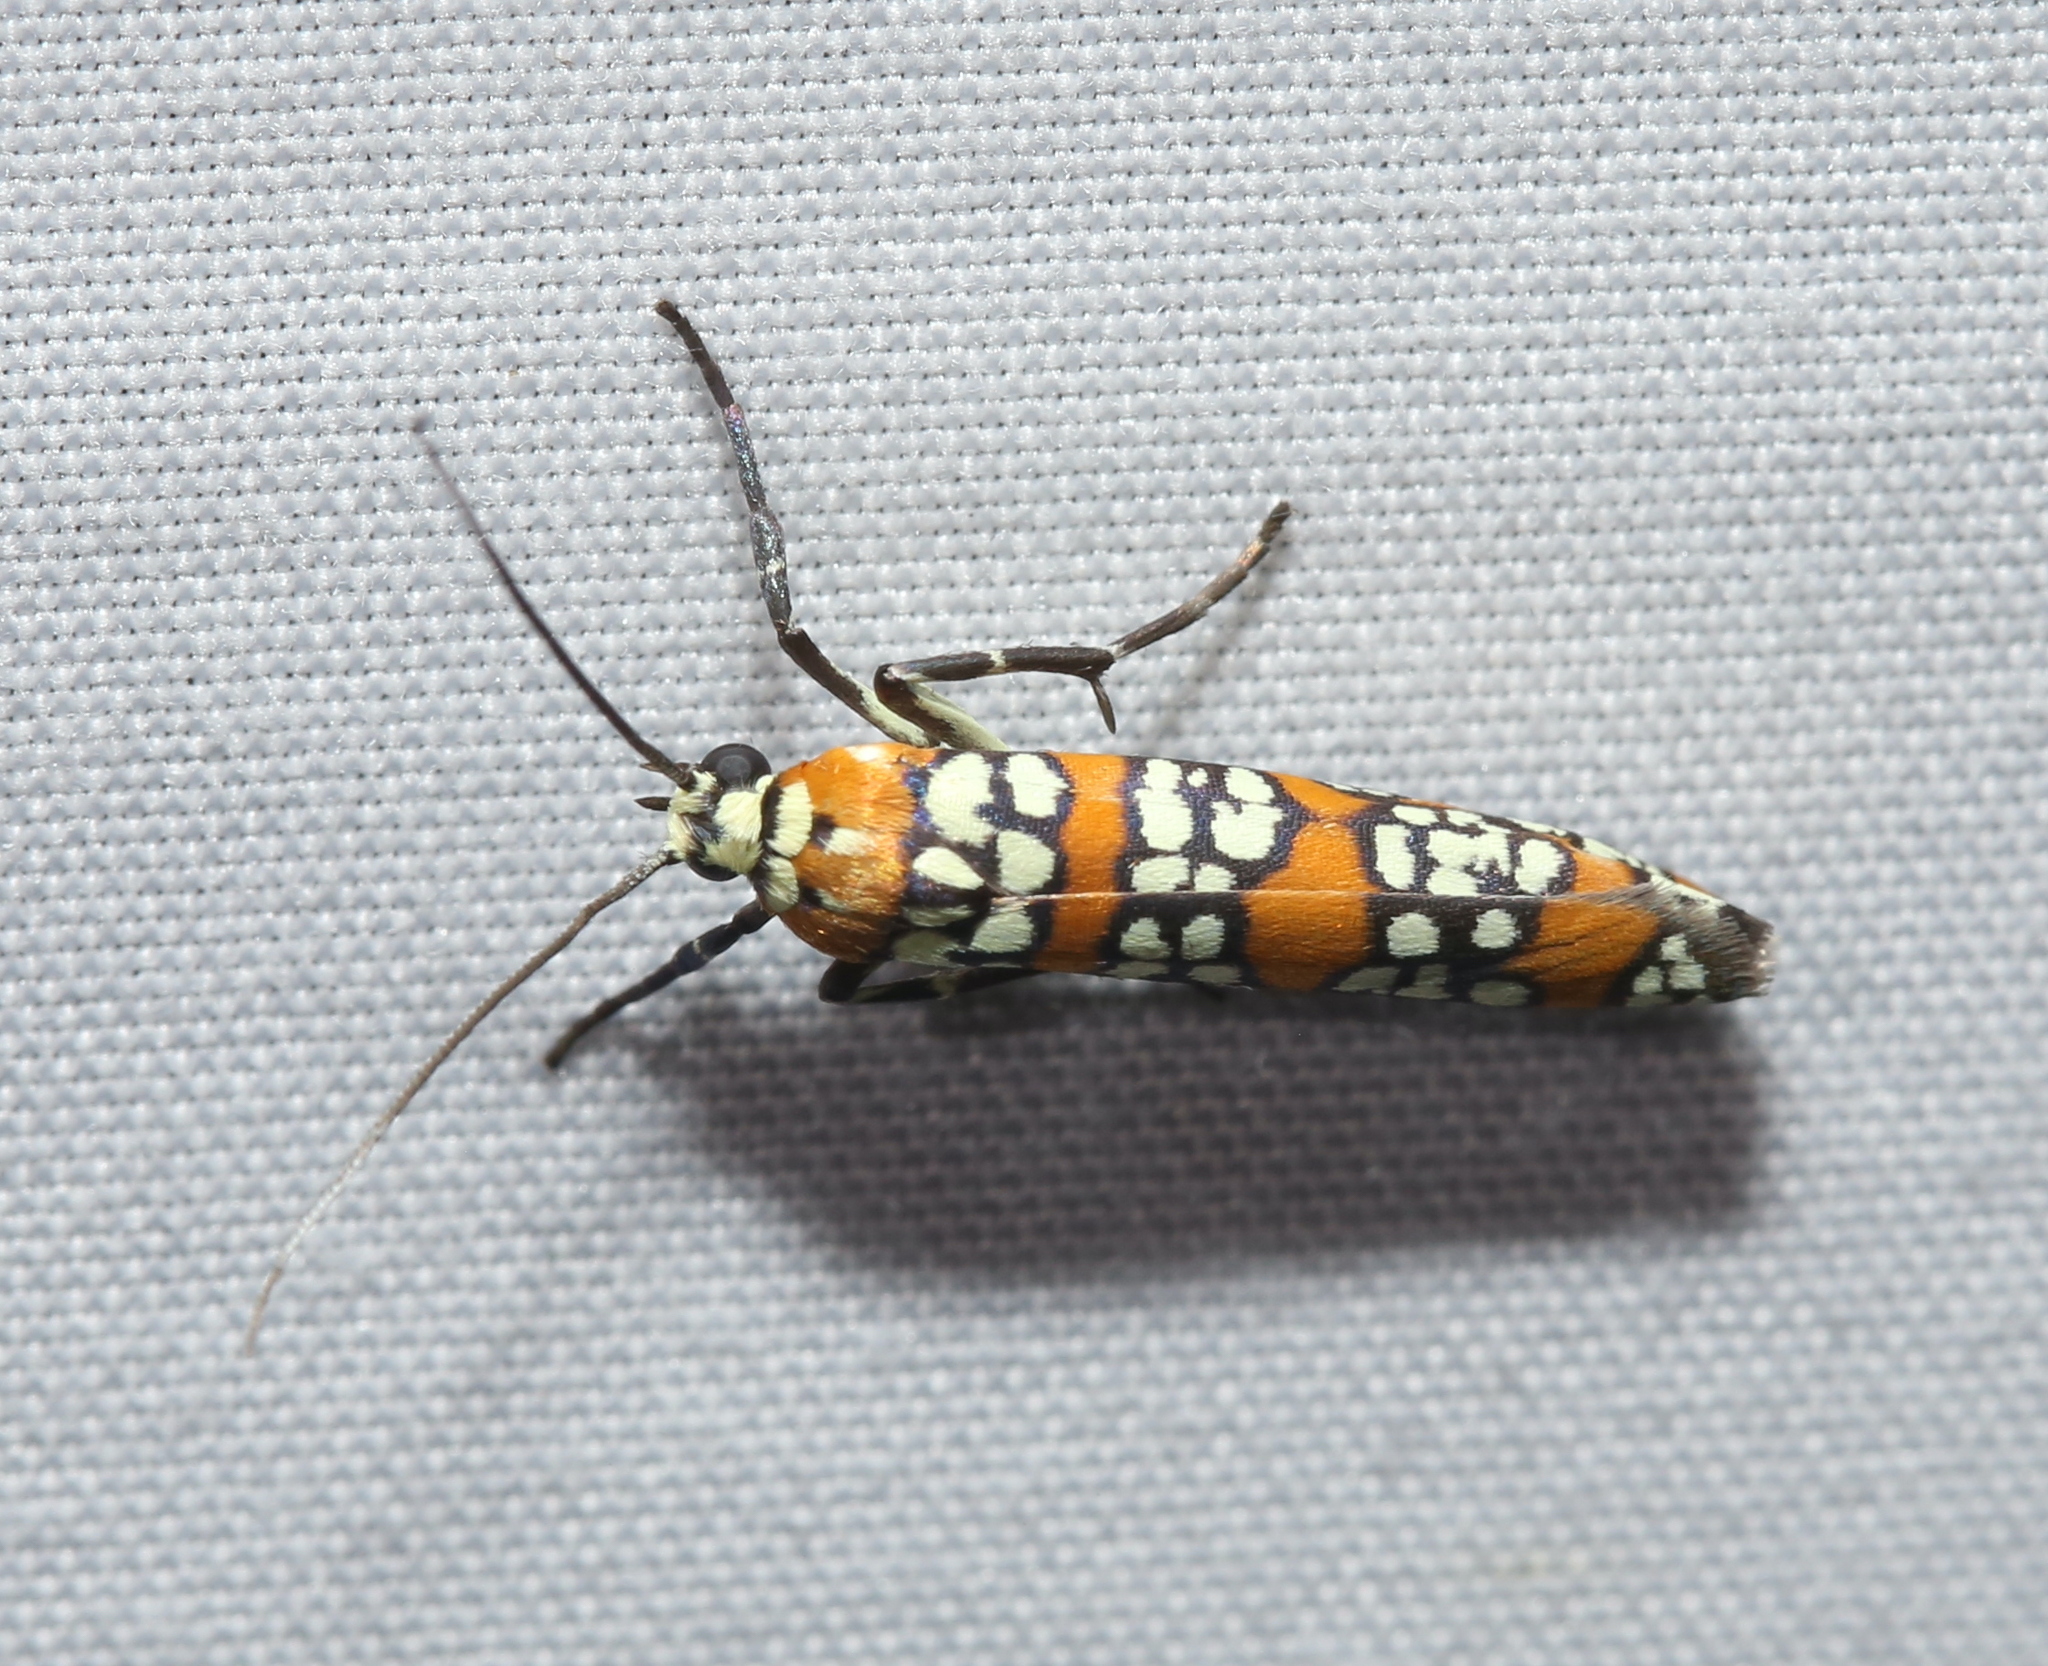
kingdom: Animalia
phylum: Arthropoda
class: Insecta
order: Lepidoptera
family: Attevidae
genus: Atteva
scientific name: Atteva punctella
